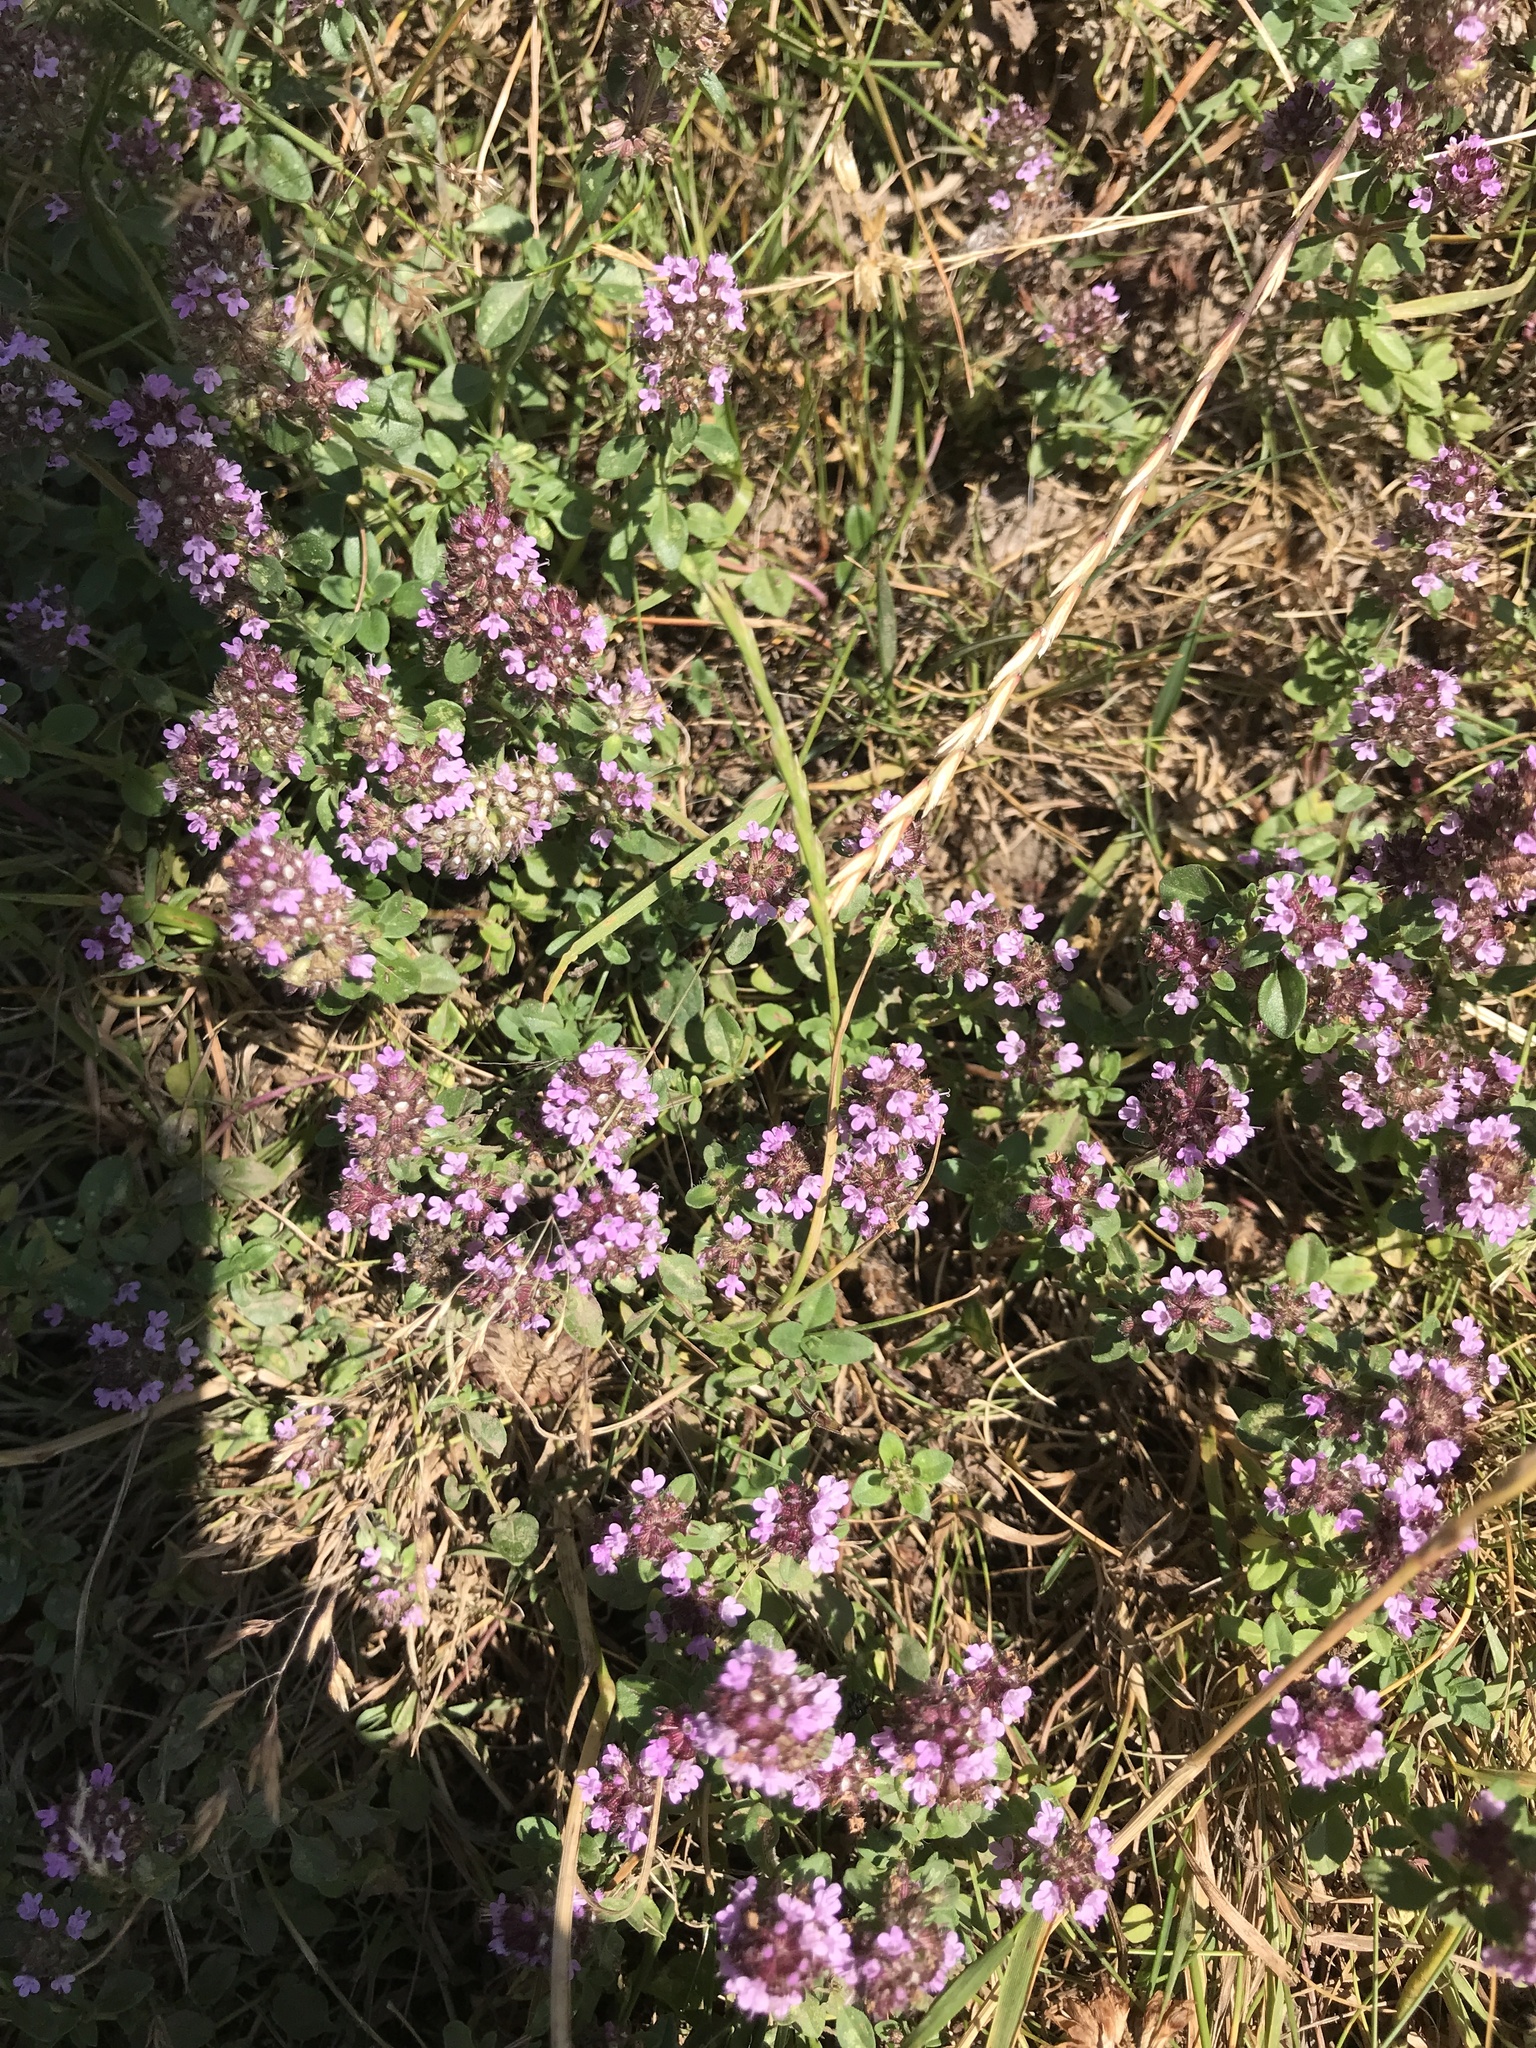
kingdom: Plantae
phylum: Tracheophyta
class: Magnoliopsida
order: Lamiales
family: Lamiaceae
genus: Thymus
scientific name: Thymus pulegioides
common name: Large thyme
